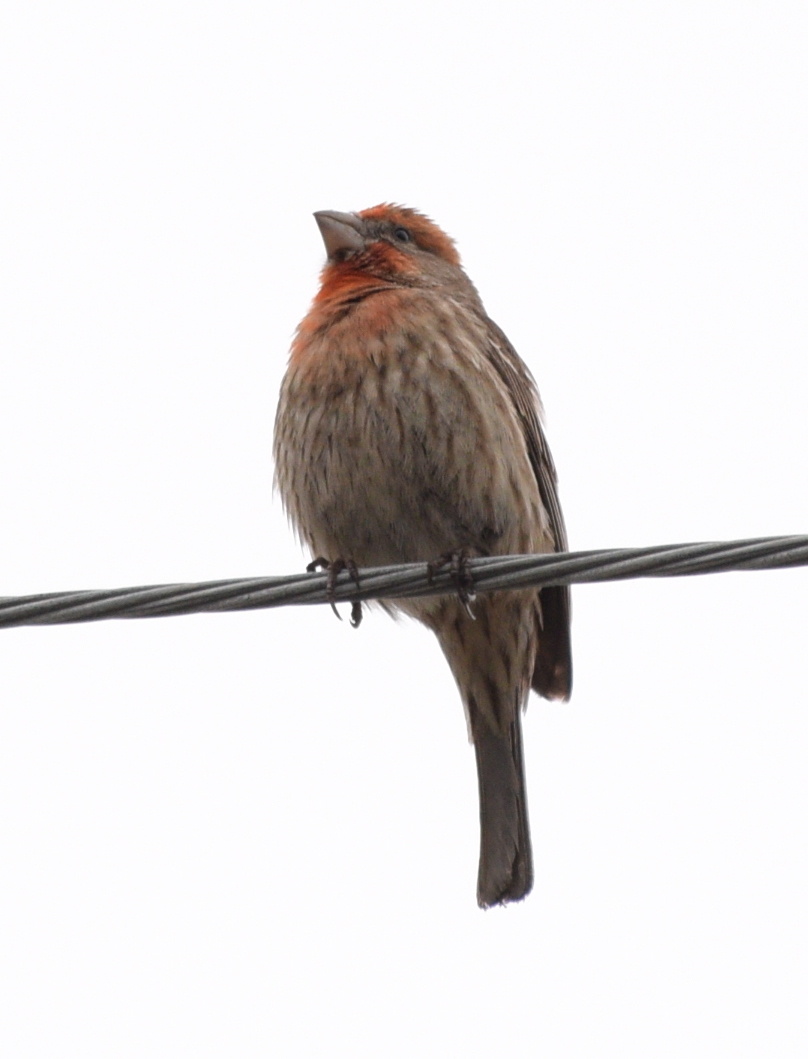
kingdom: Animalia
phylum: Chordata
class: Aves
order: Passeriformes
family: Fringillidae
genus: Haemorhous
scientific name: Haemorhous mexicanus
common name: House finch
